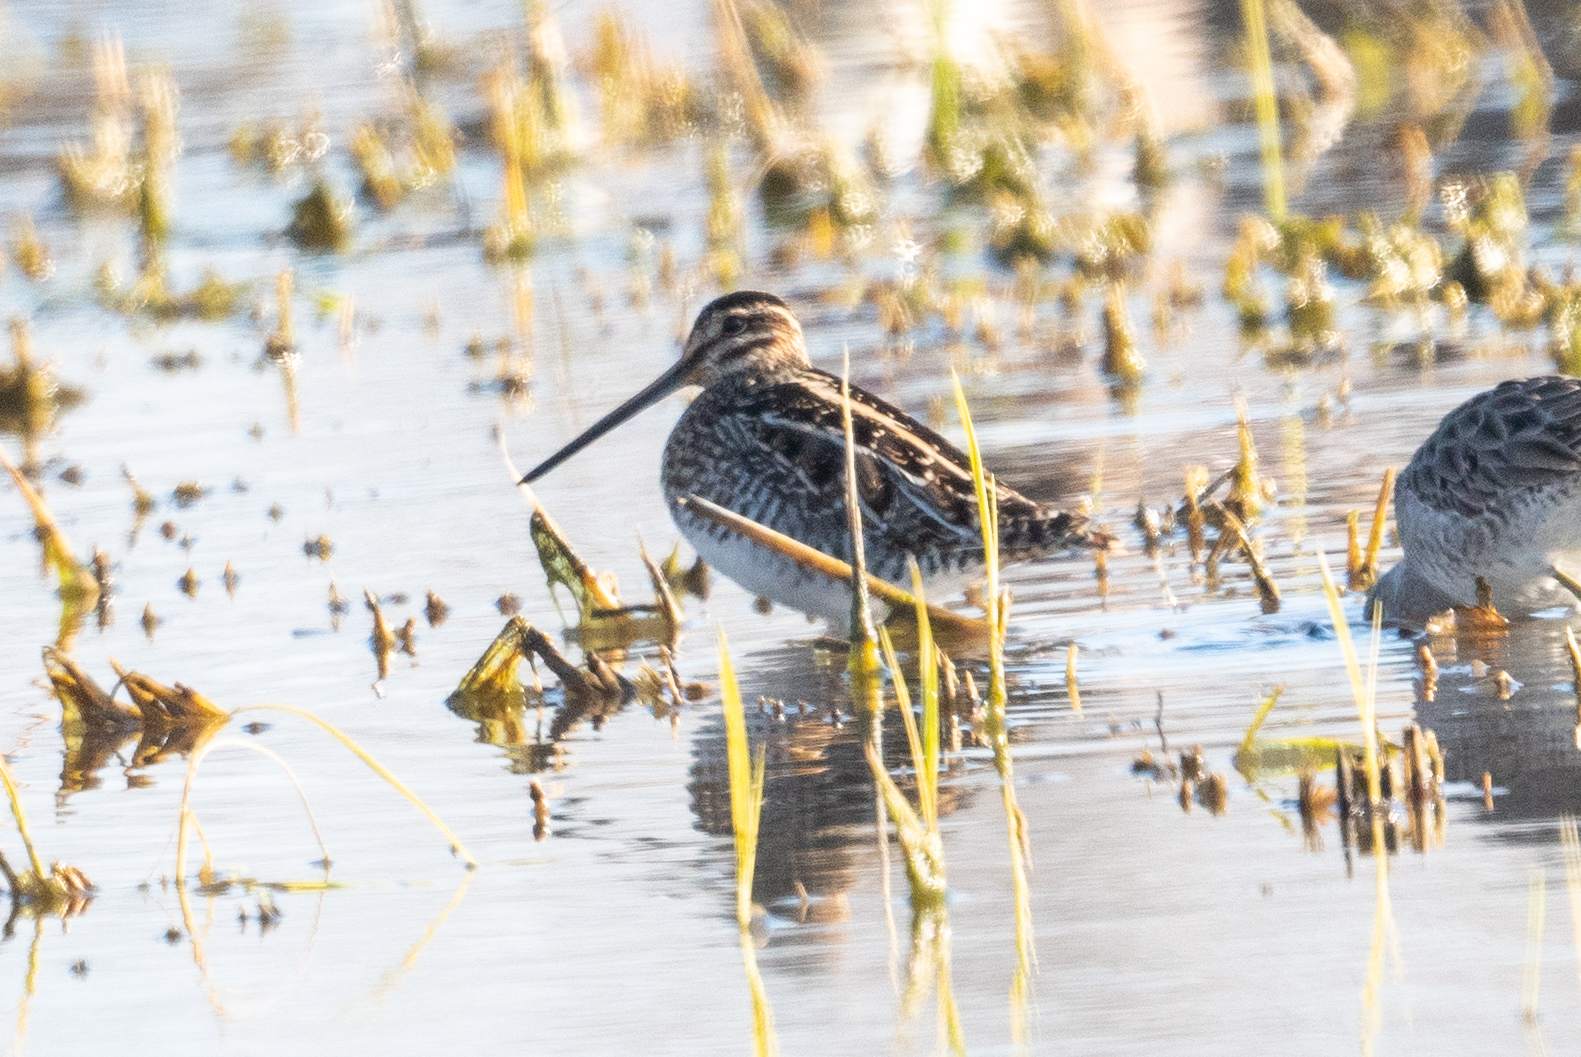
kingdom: Animalia
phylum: Chordata
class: Aves
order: Charadriiformes
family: Scolopacidae
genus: Gallinago
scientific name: Gallinago delicata
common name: Wilson's snipe
